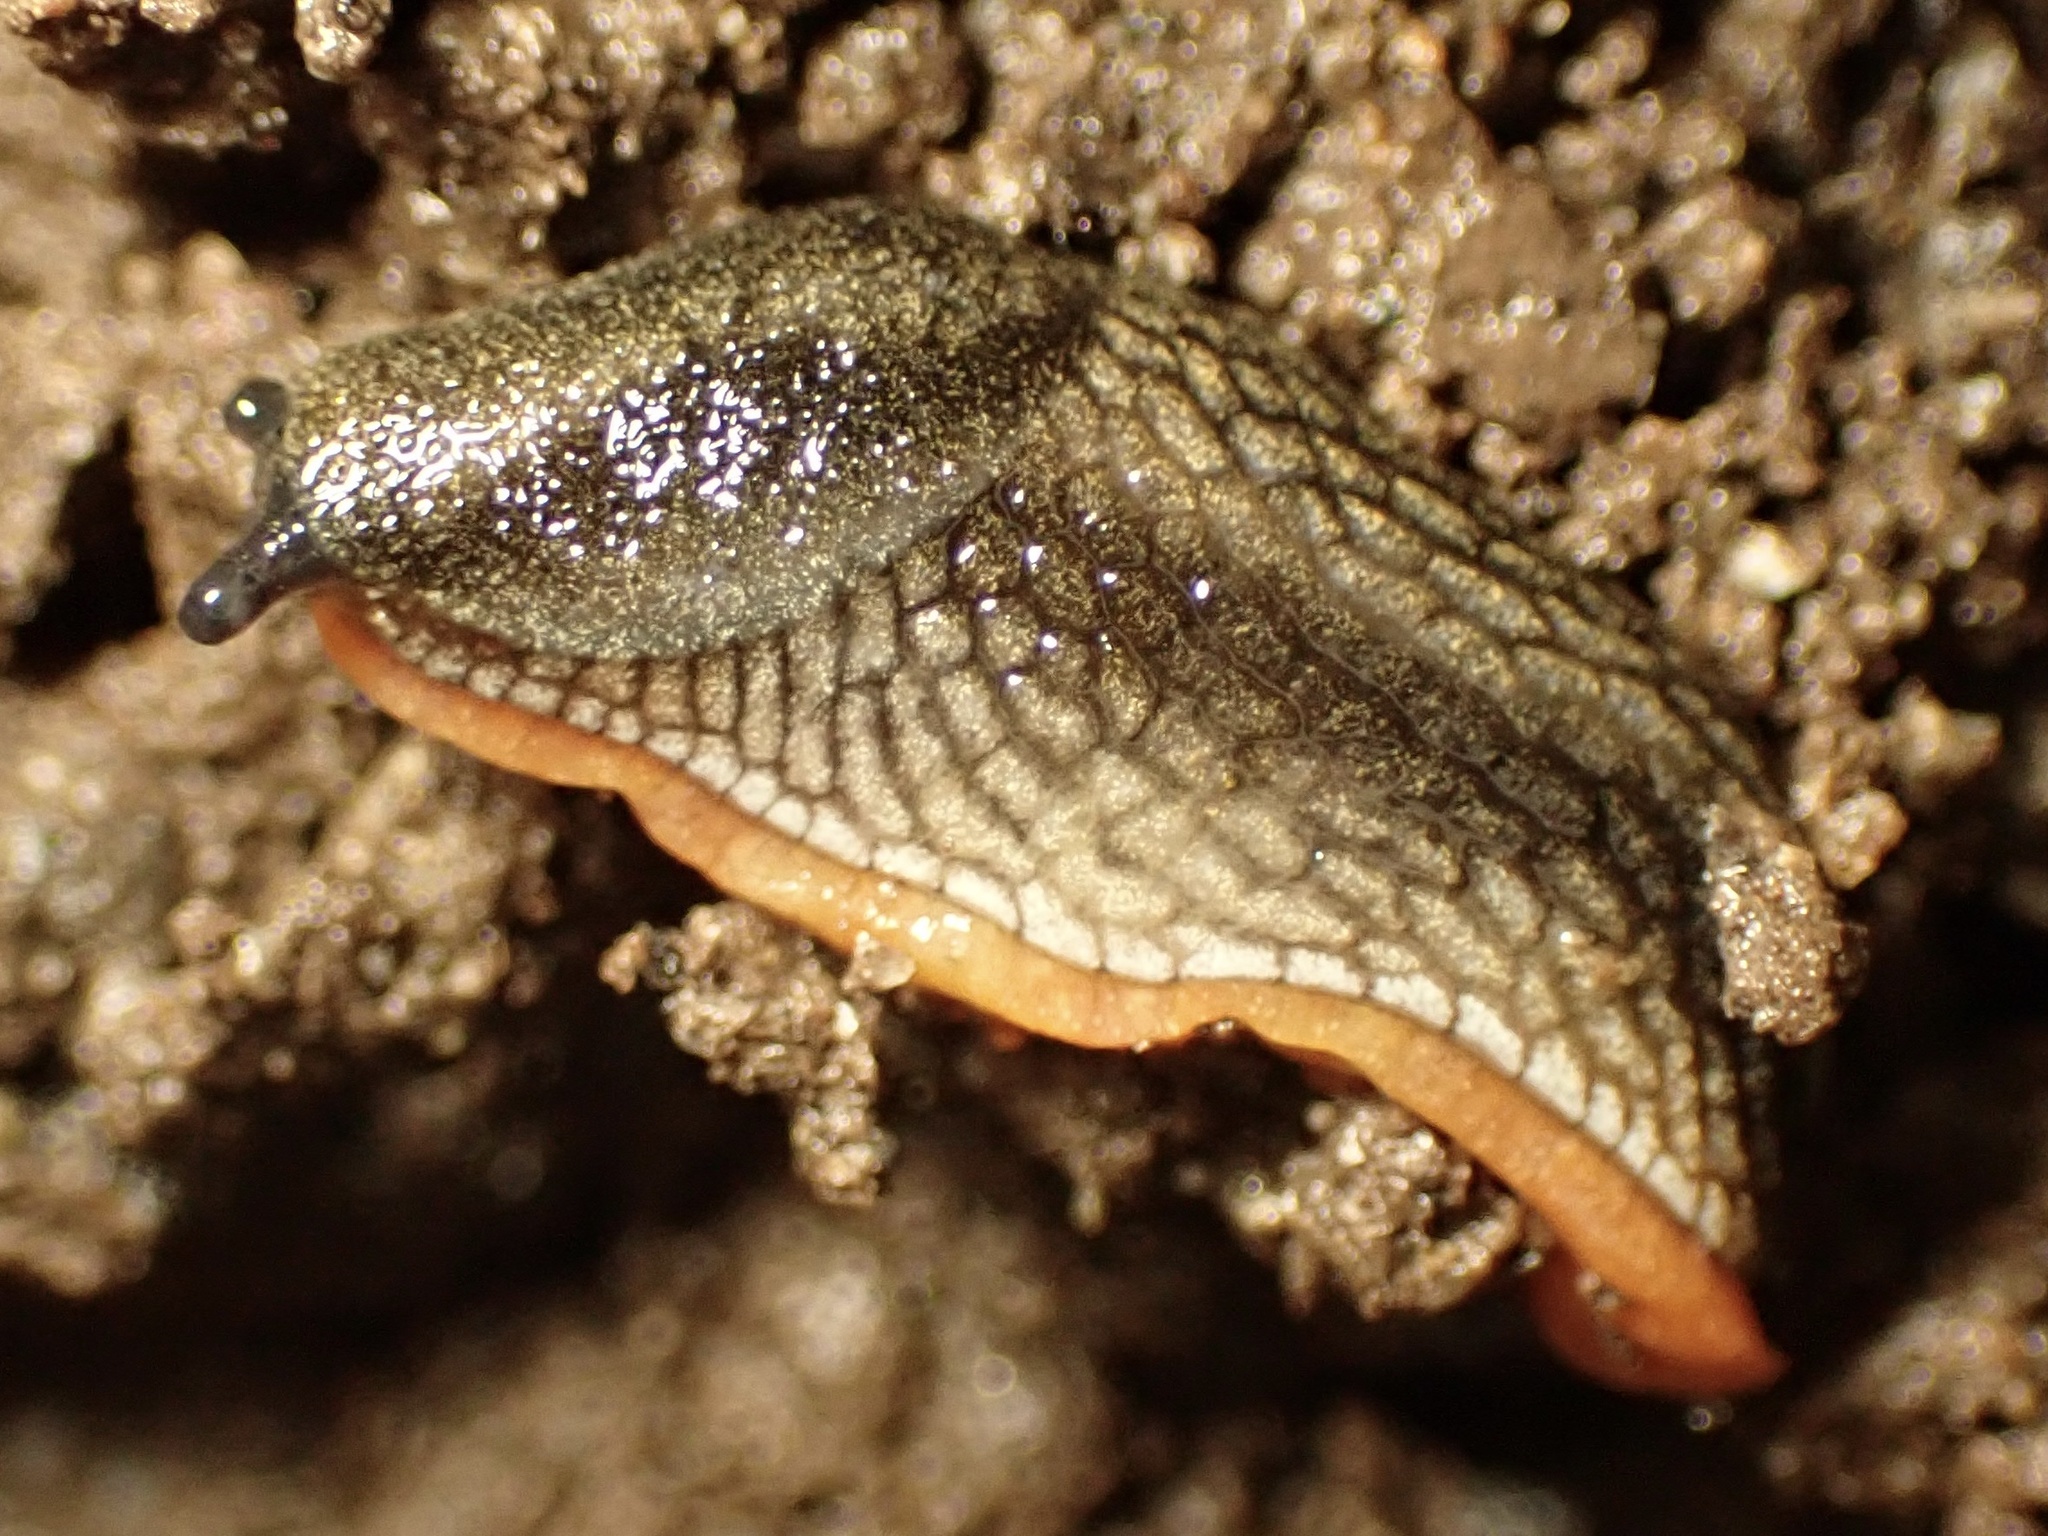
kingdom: Animalia
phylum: Mollusca
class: Gastropoda
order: Stylommatophora
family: Arionidae
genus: Kobeltia
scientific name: Kobeltia
